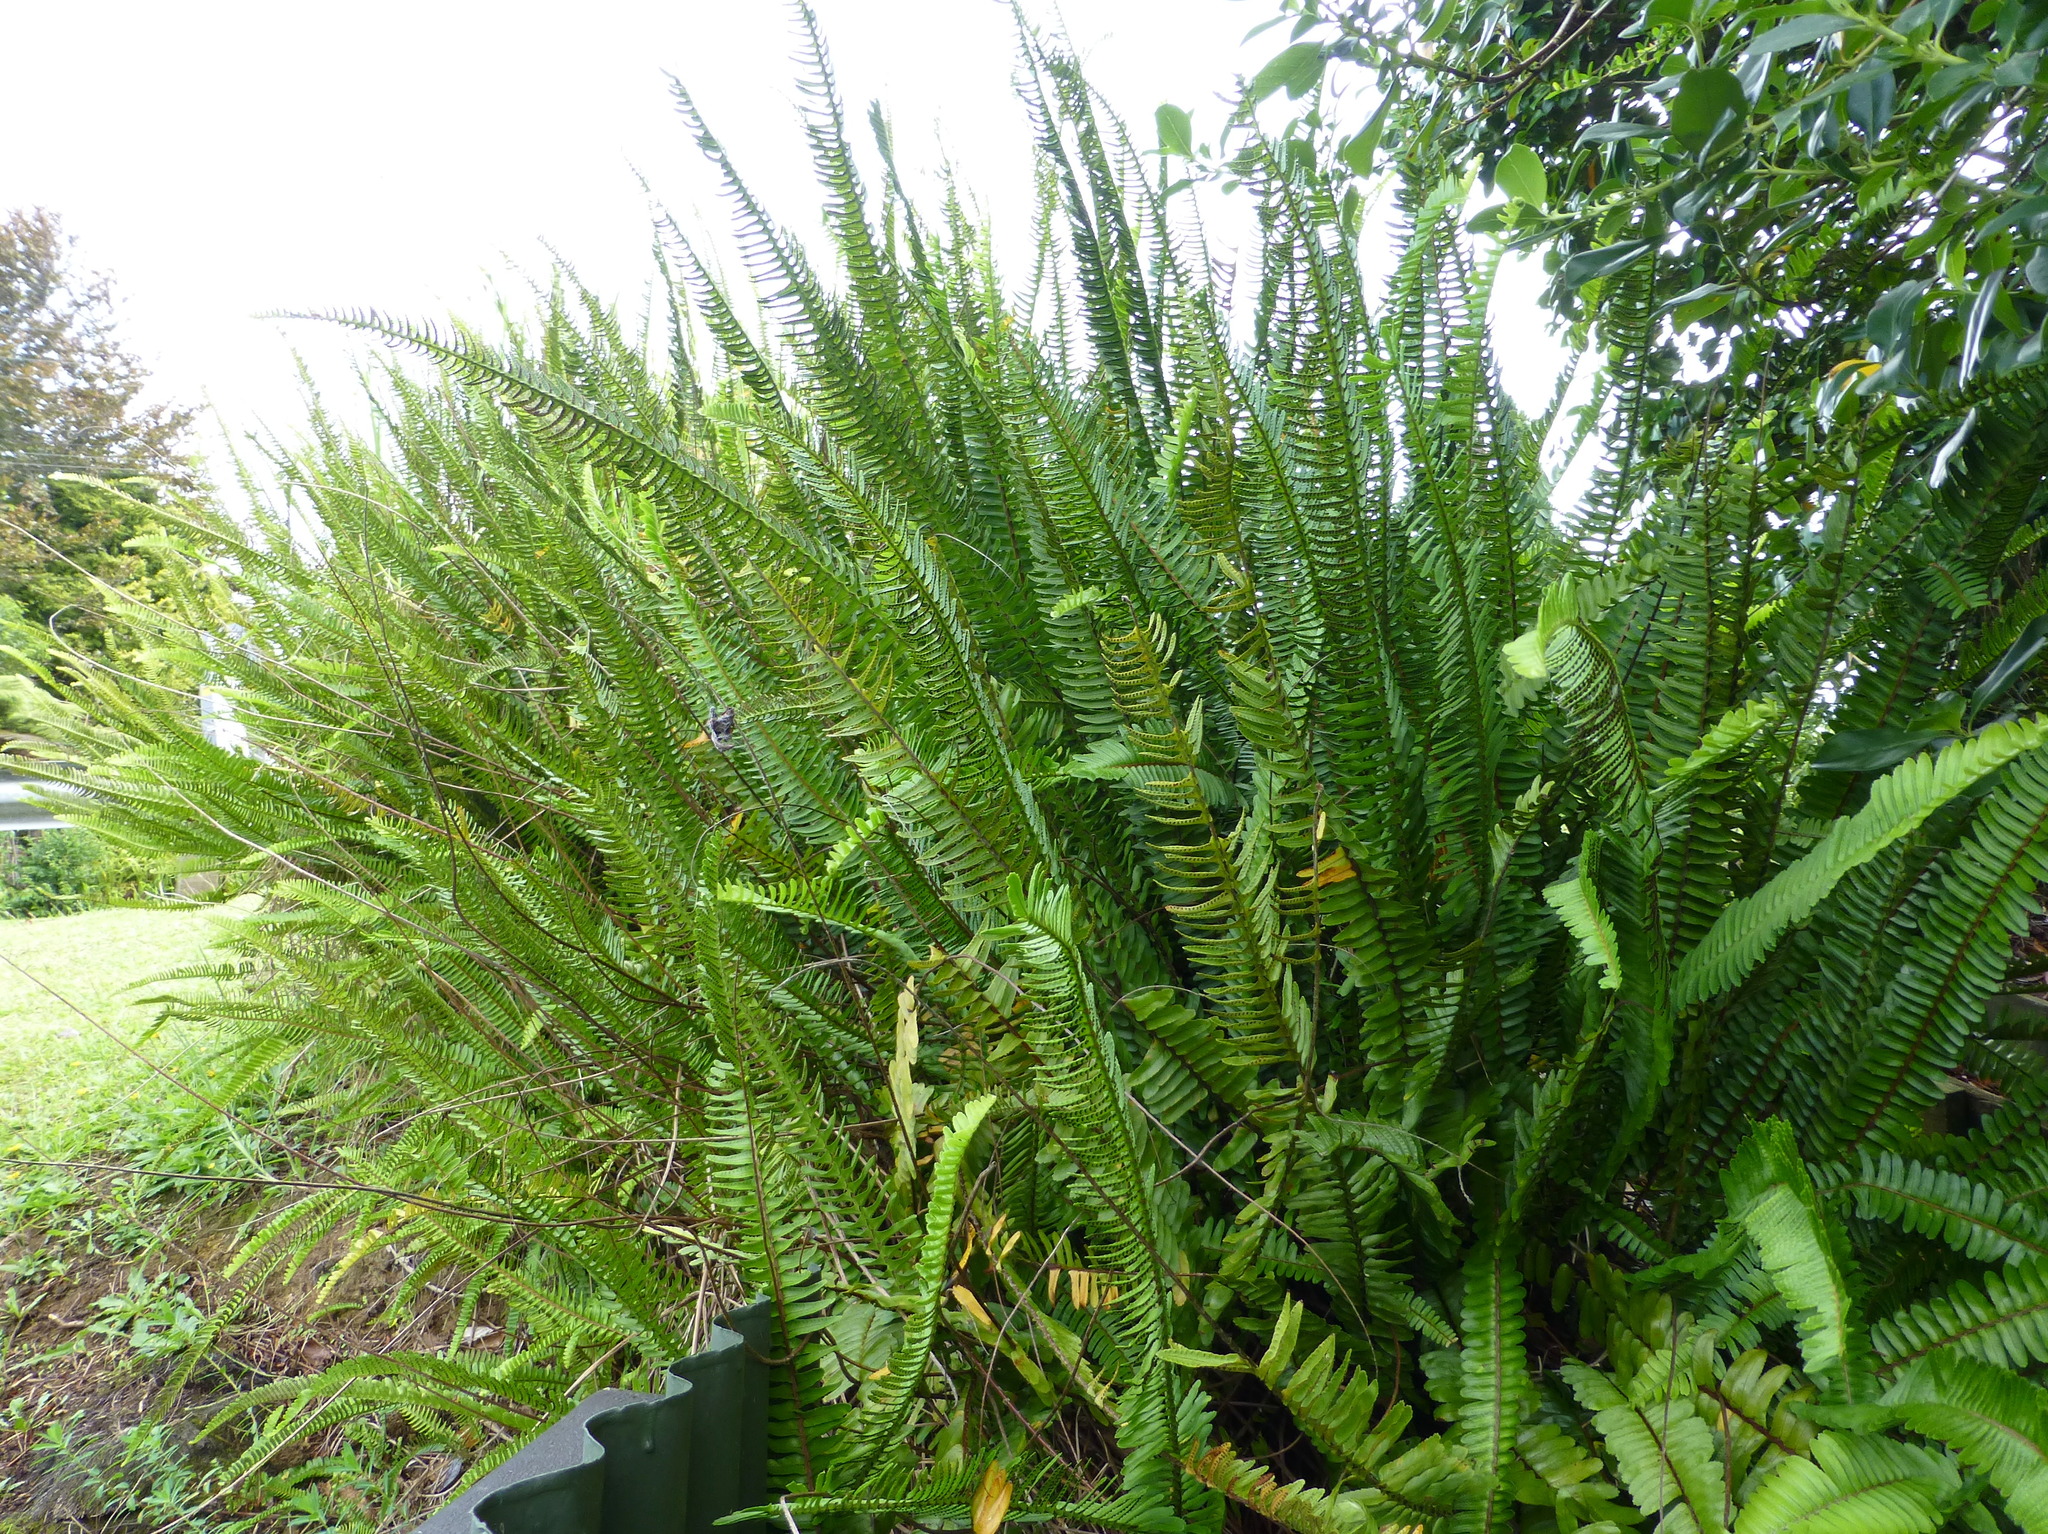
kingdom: Plantae
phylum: Tracheophyta
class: Polypodiopsida
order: Polypodiales
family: Nephrolepidaceae
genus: Nephrolepis
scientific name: Nephrolepis cordifolia
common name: Narrow swordfern
